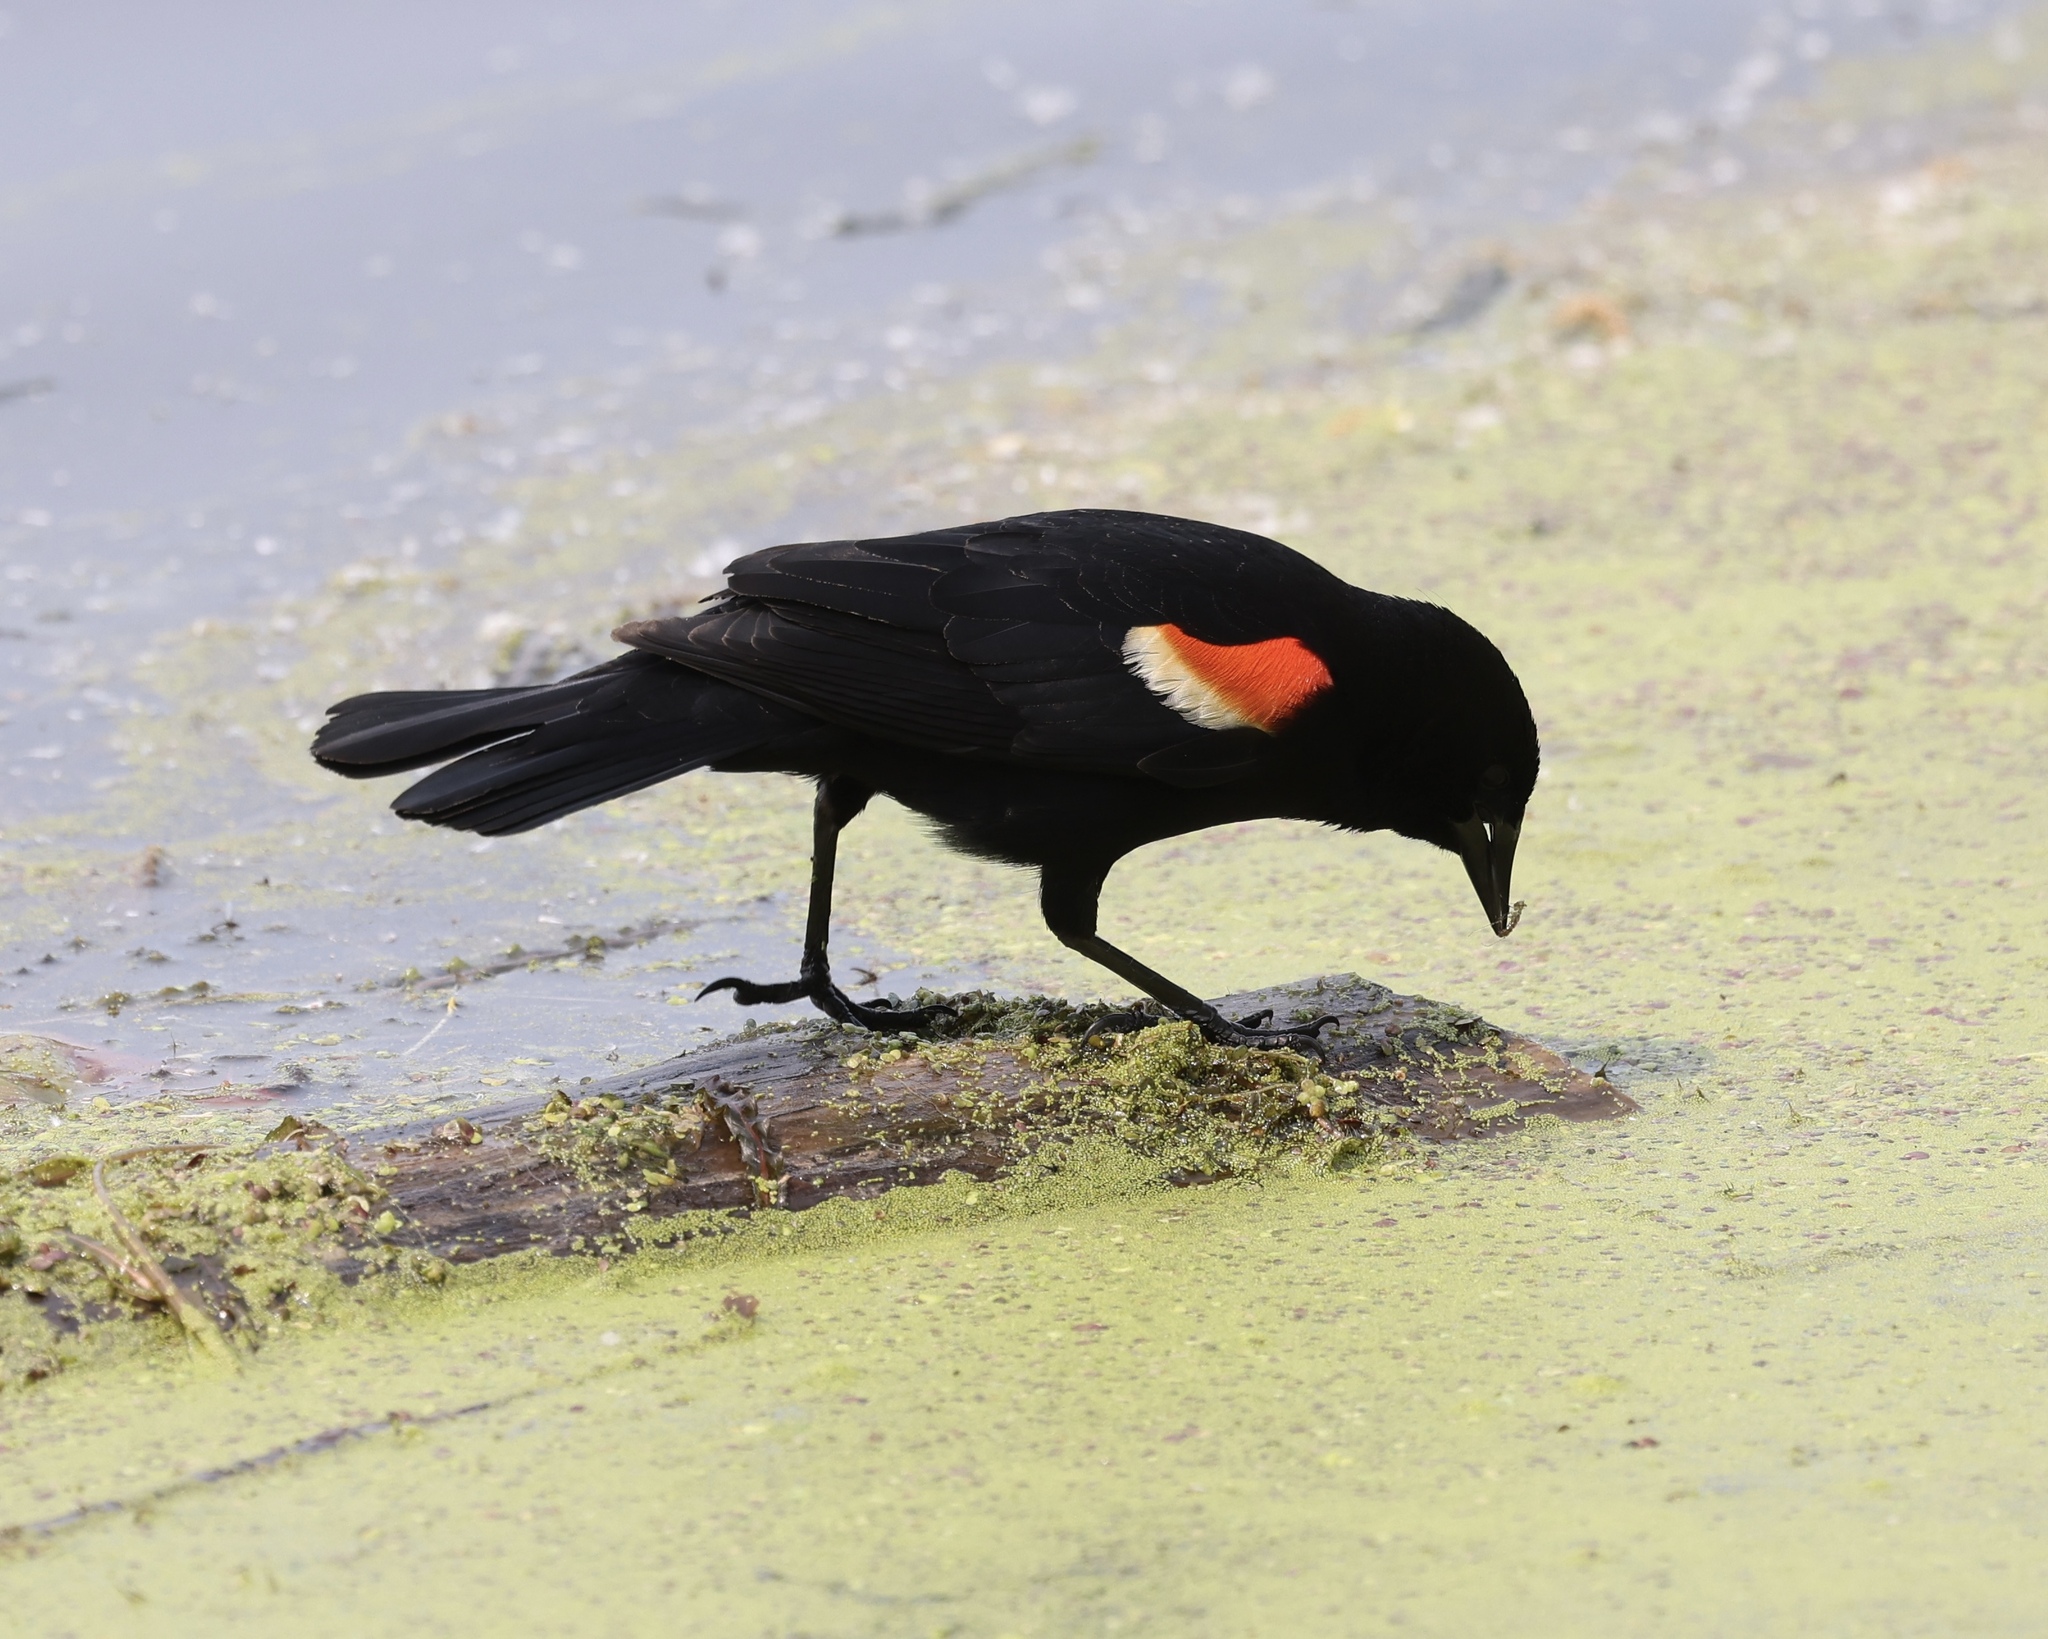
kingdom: Animalia
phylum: Chordata
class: Aves
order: Passeriformes
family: Icteridae
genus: Agelaius
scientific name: Agelaius phoeniceus
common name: Red-winged blackbird
